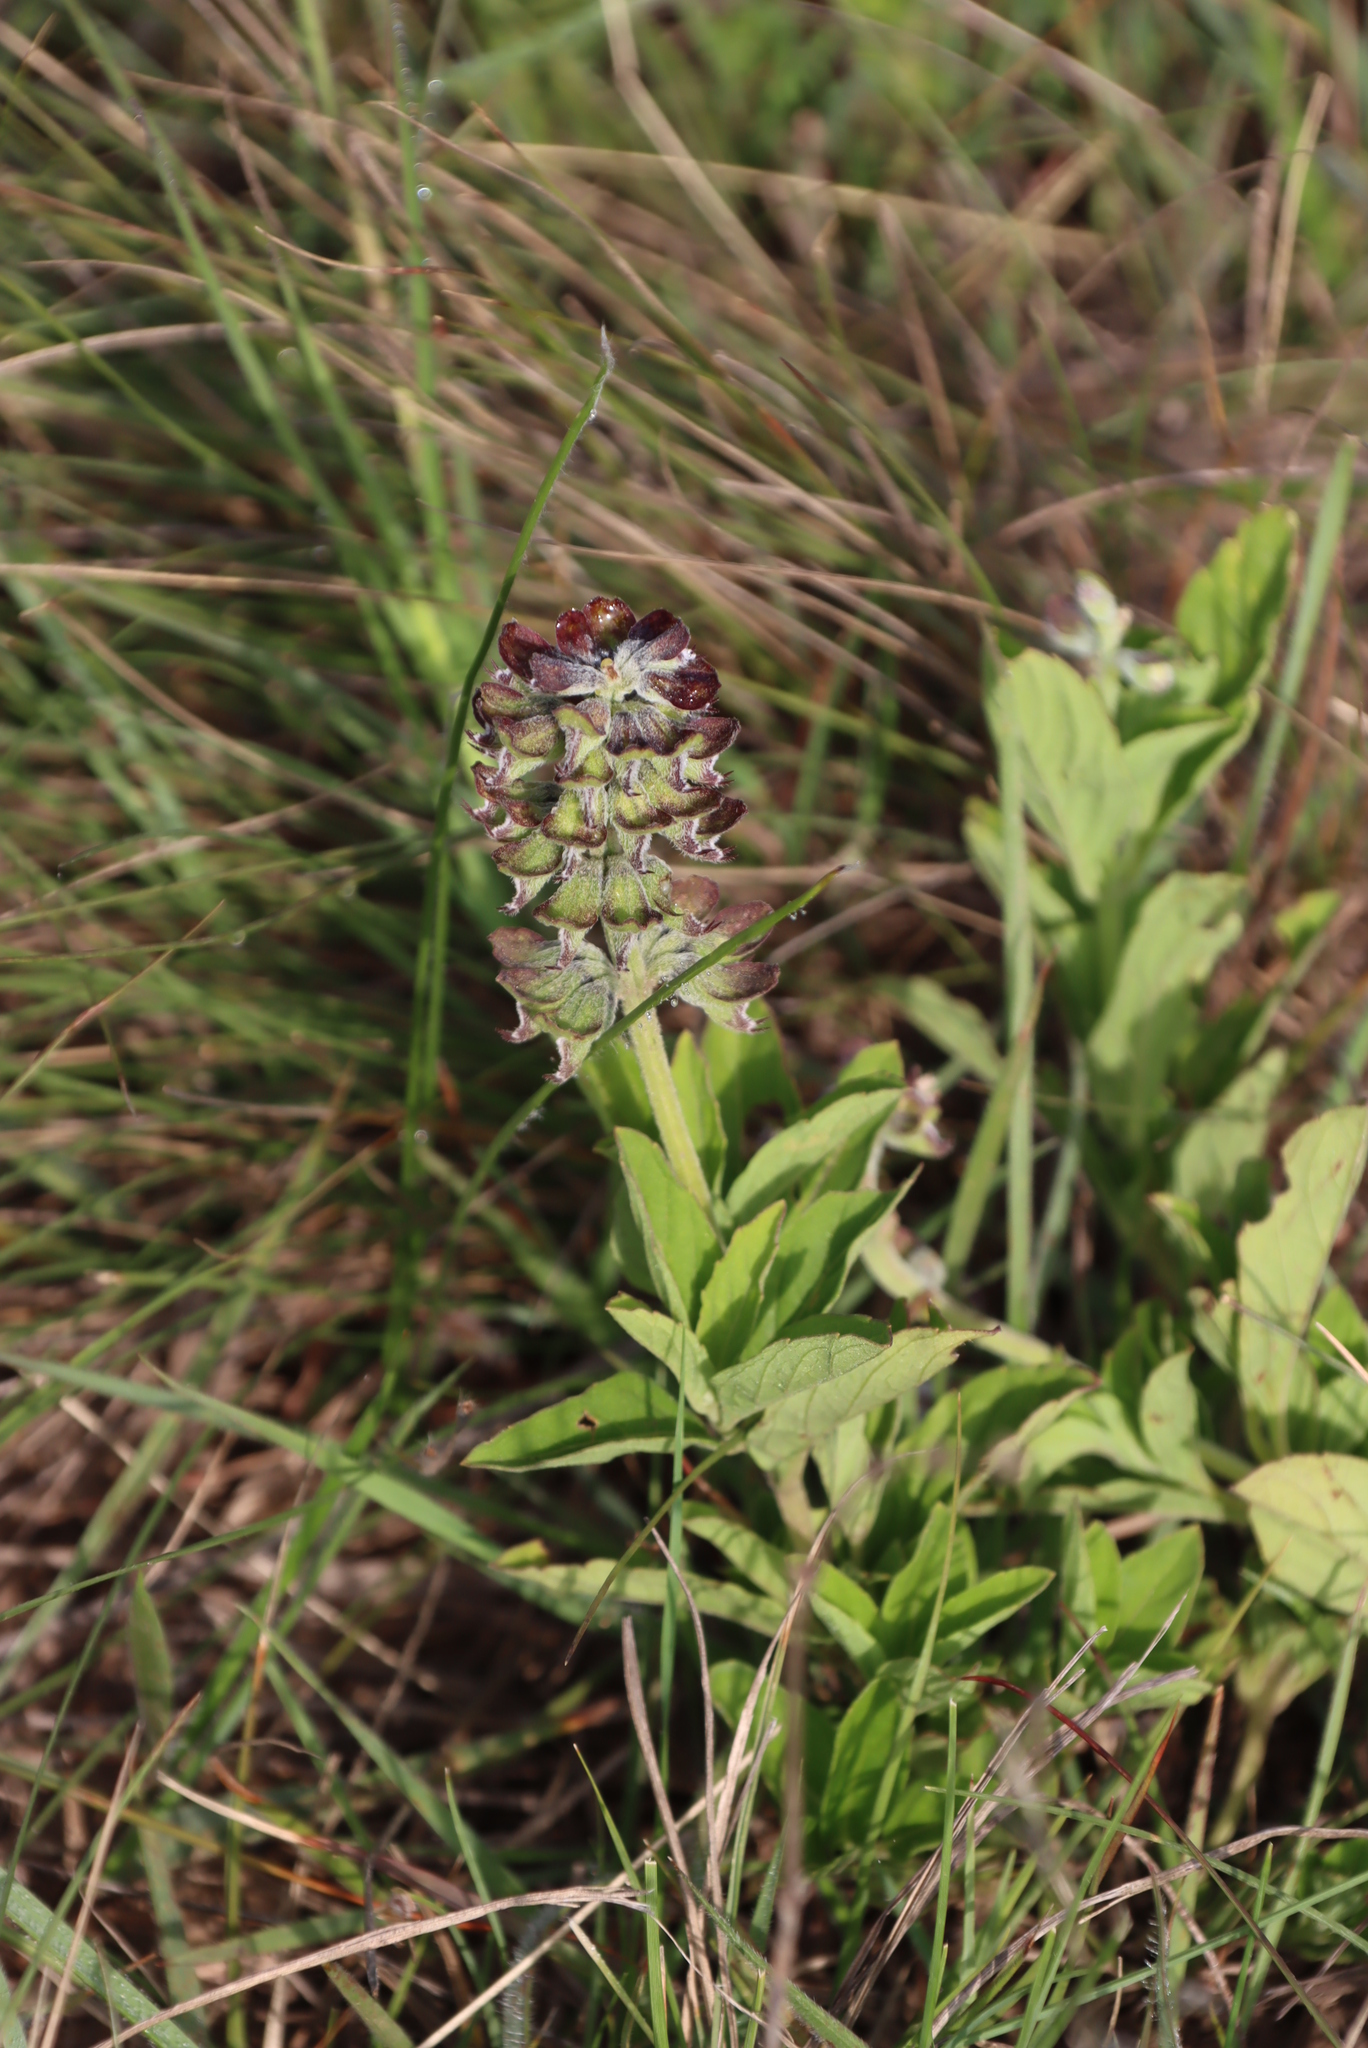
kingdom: Plantae
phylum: Tracheophyta
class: Magnoliopsida
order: Lamiales
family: Lamiaceae
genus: Ocimum
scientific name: Ocimum obovatum
